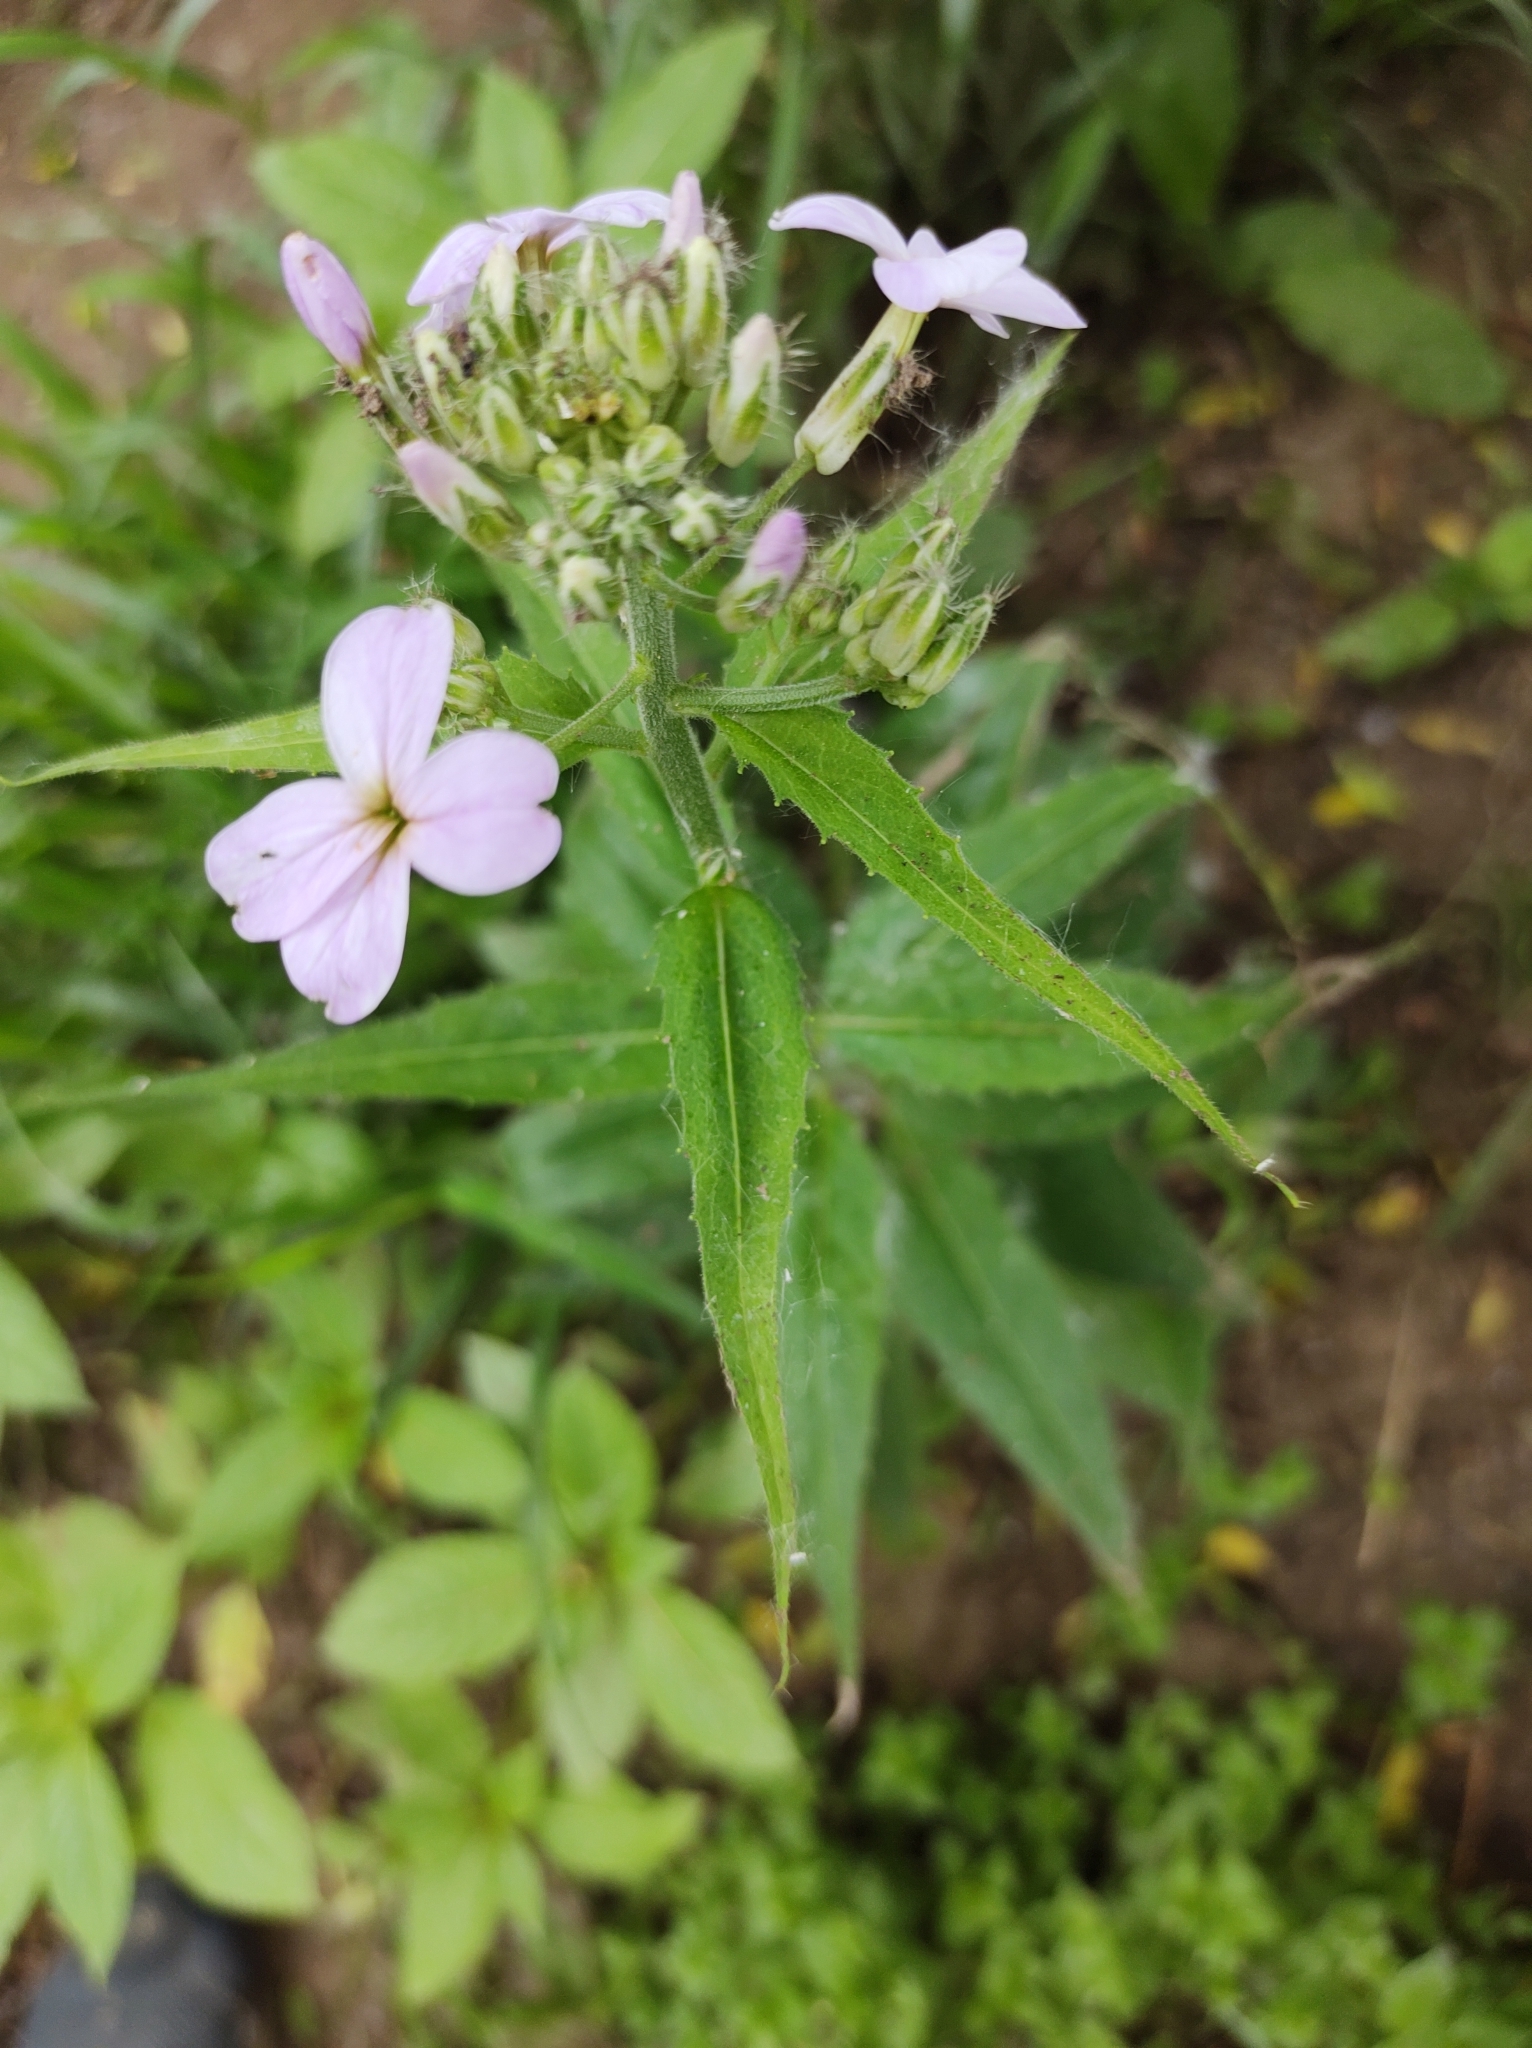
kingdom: Plantae
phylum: Tracheophyta
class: Magnoliopsida
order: Brassicales
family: Brassicaceae
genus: Hesperis
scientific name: Hesperis matronalis
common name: Dame's-violet
